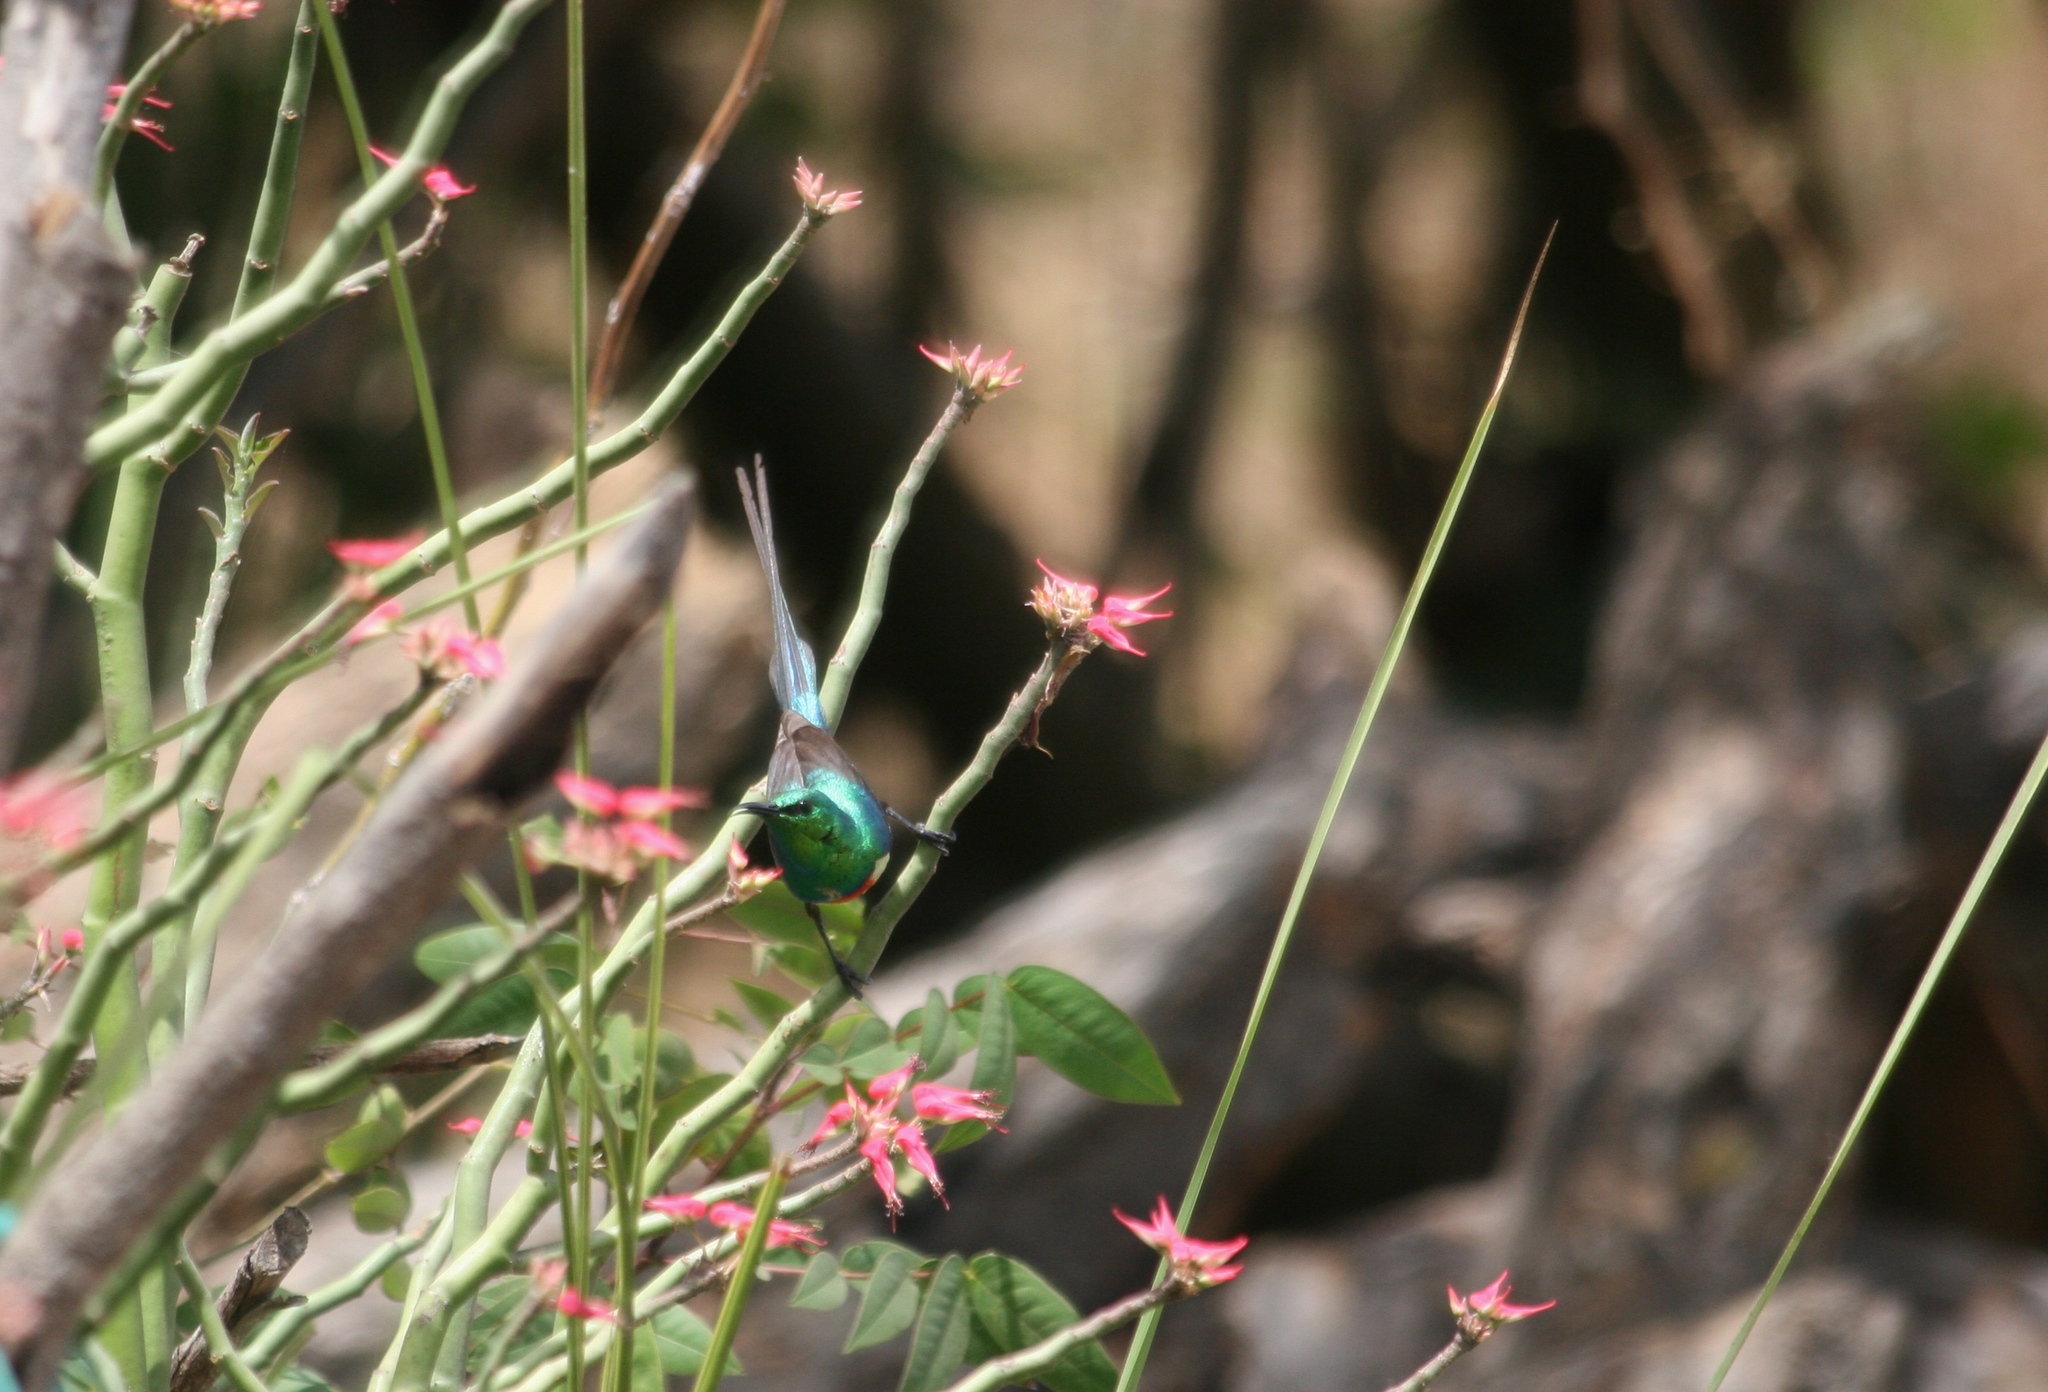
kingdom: Animalia
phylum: Chordata
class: Aves
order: Passeriformes
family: Nectariniidae
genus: Cinnyris
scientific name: Cinnyris pulchellus
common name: Beautiful sunbird
